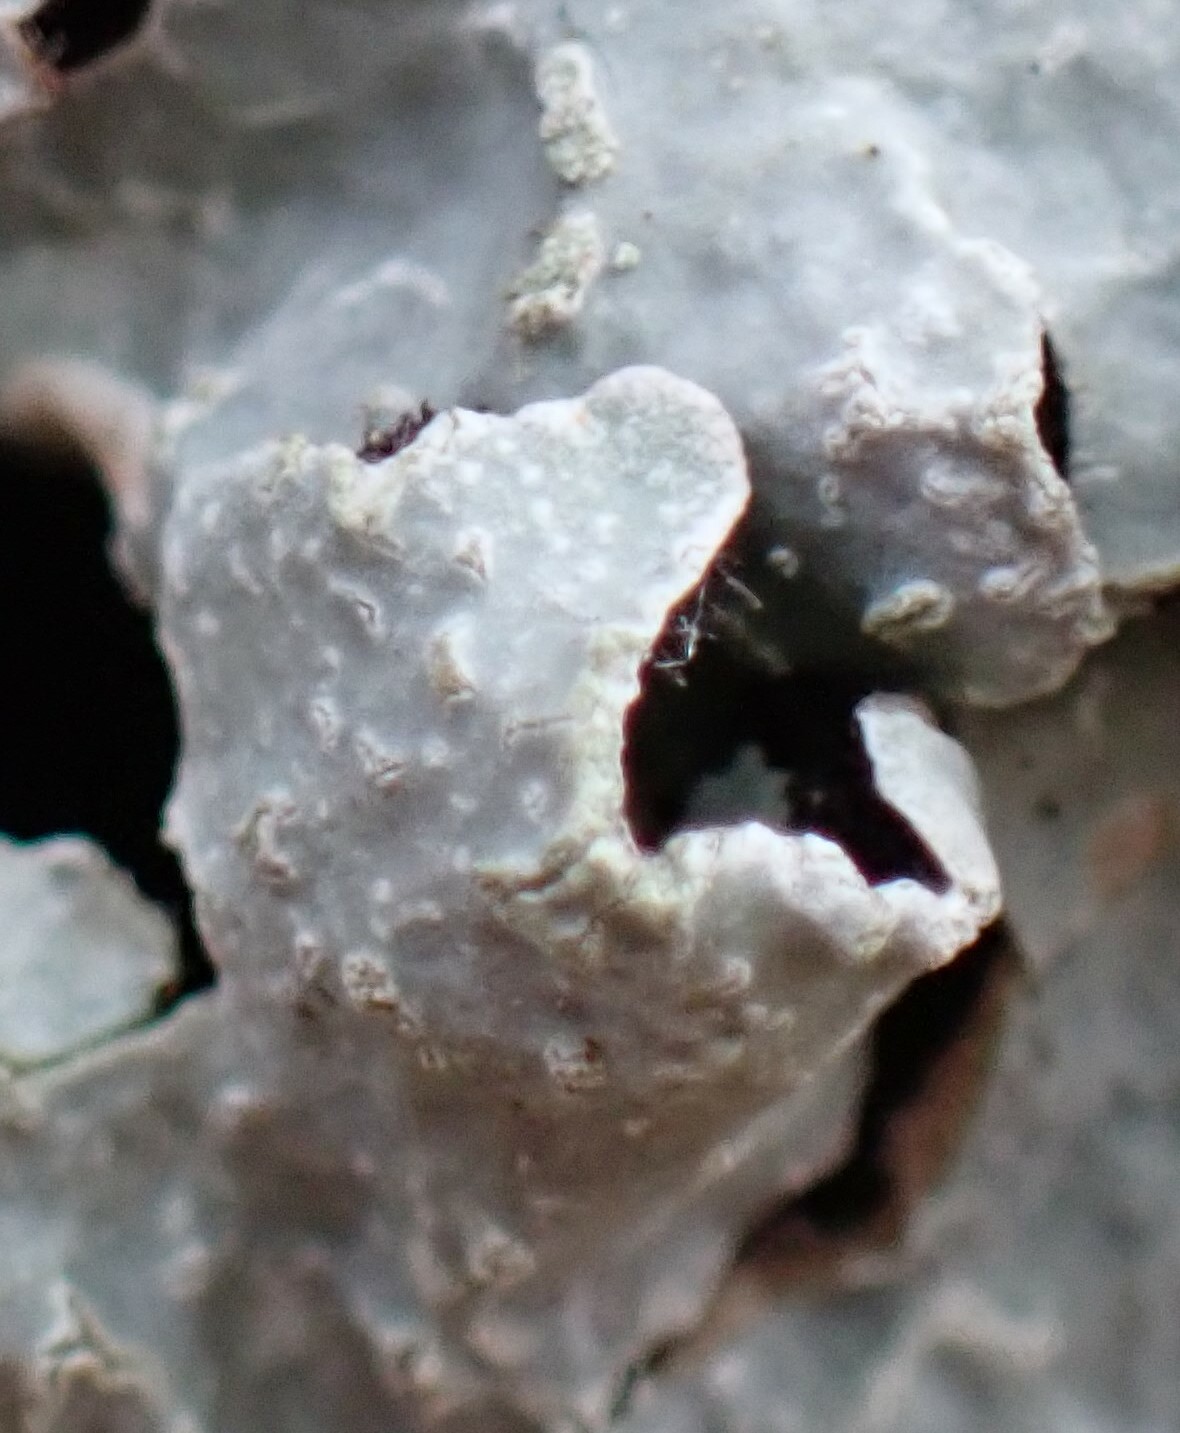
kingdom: Fungi
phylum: Ascomycota
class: Lecanoromycetes
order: Lecanorales
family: Parmeliaceae
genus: Parmelia
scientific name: Parmelia sulcata
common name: Netted shield lichen
